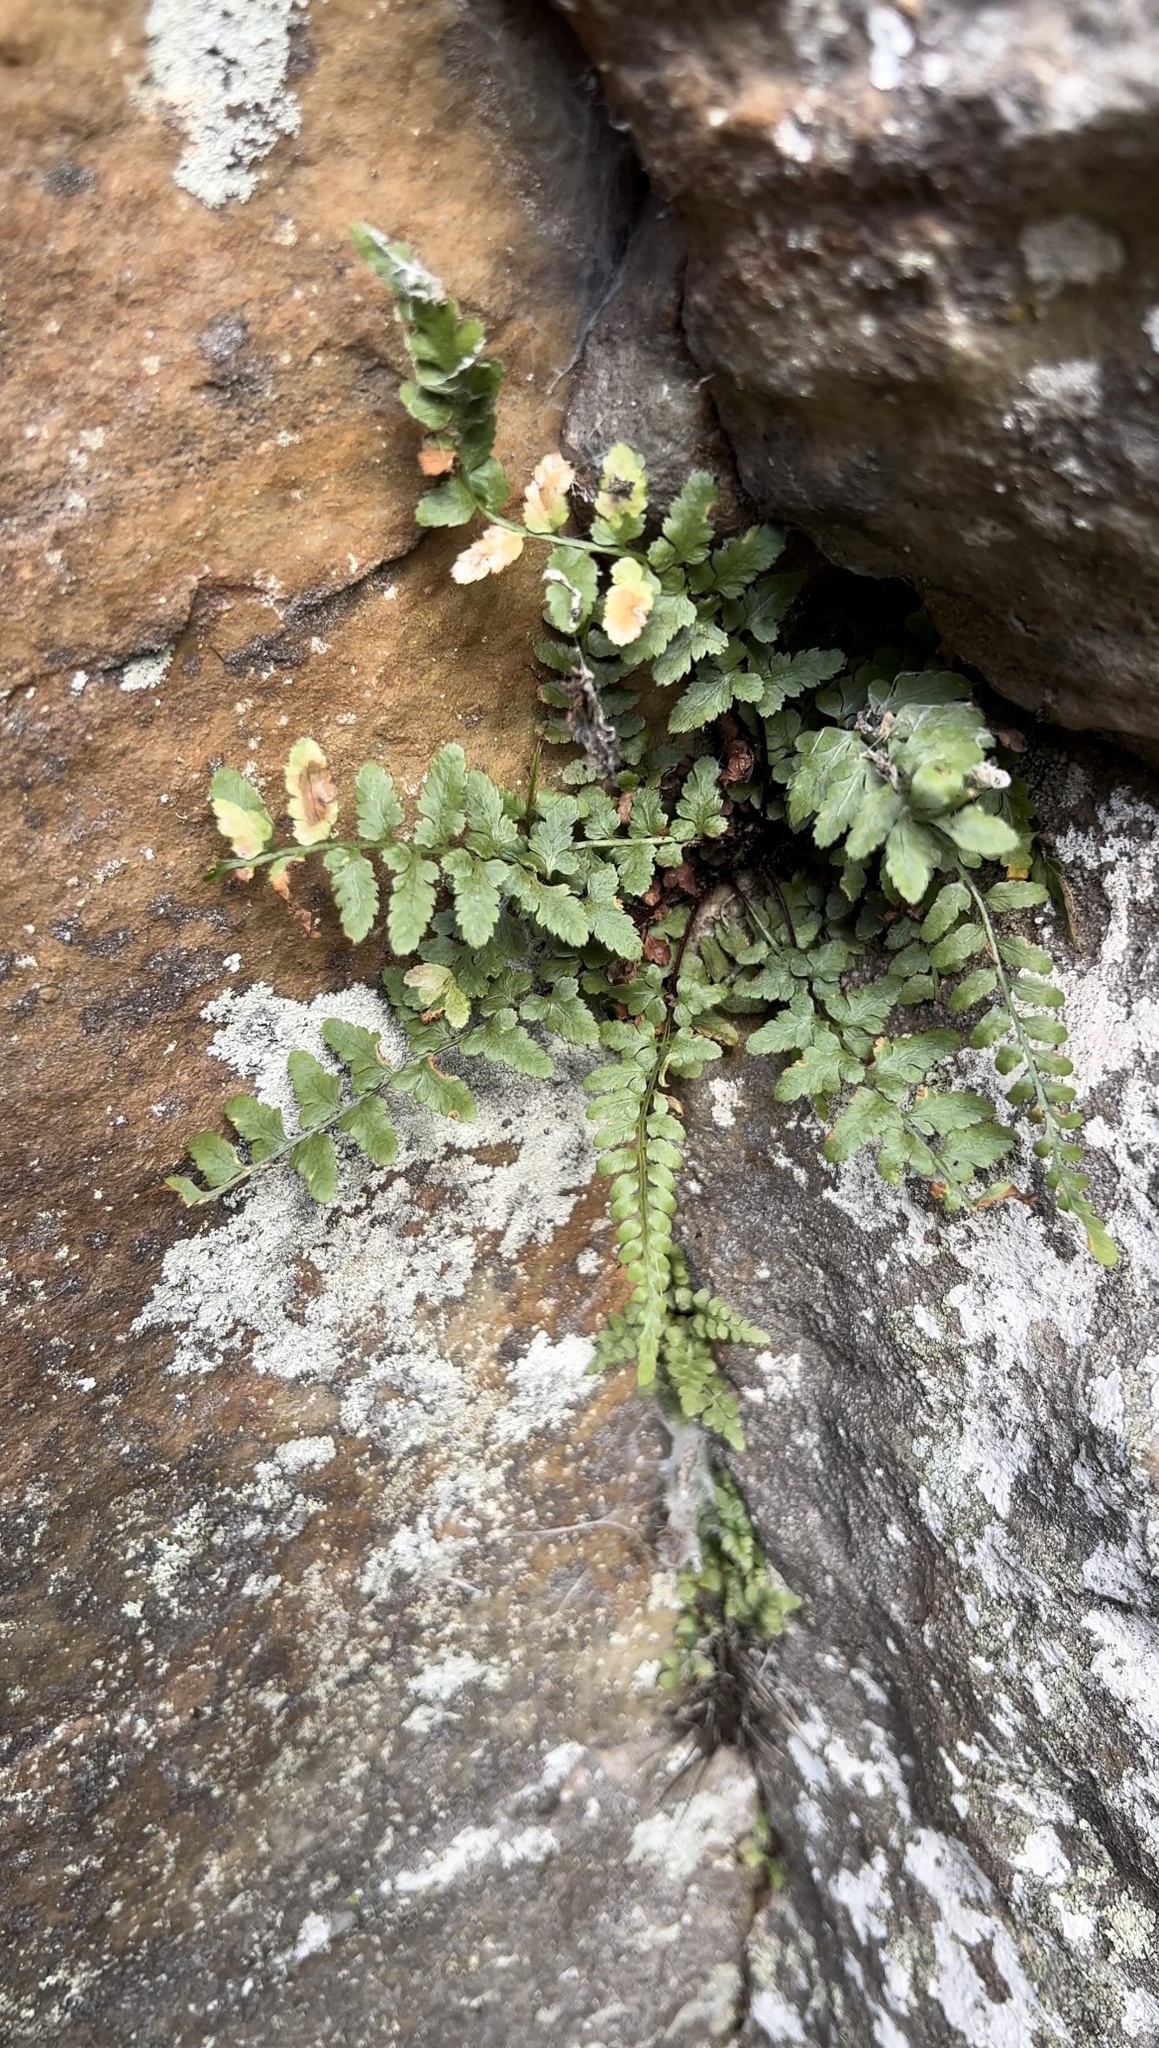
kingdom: Plantae
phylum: Tracheophyta
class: Polypodiopsida
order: Polypodiales
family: Aspleniaceae
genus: Asplenium
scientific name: Asplenium bradleyi
